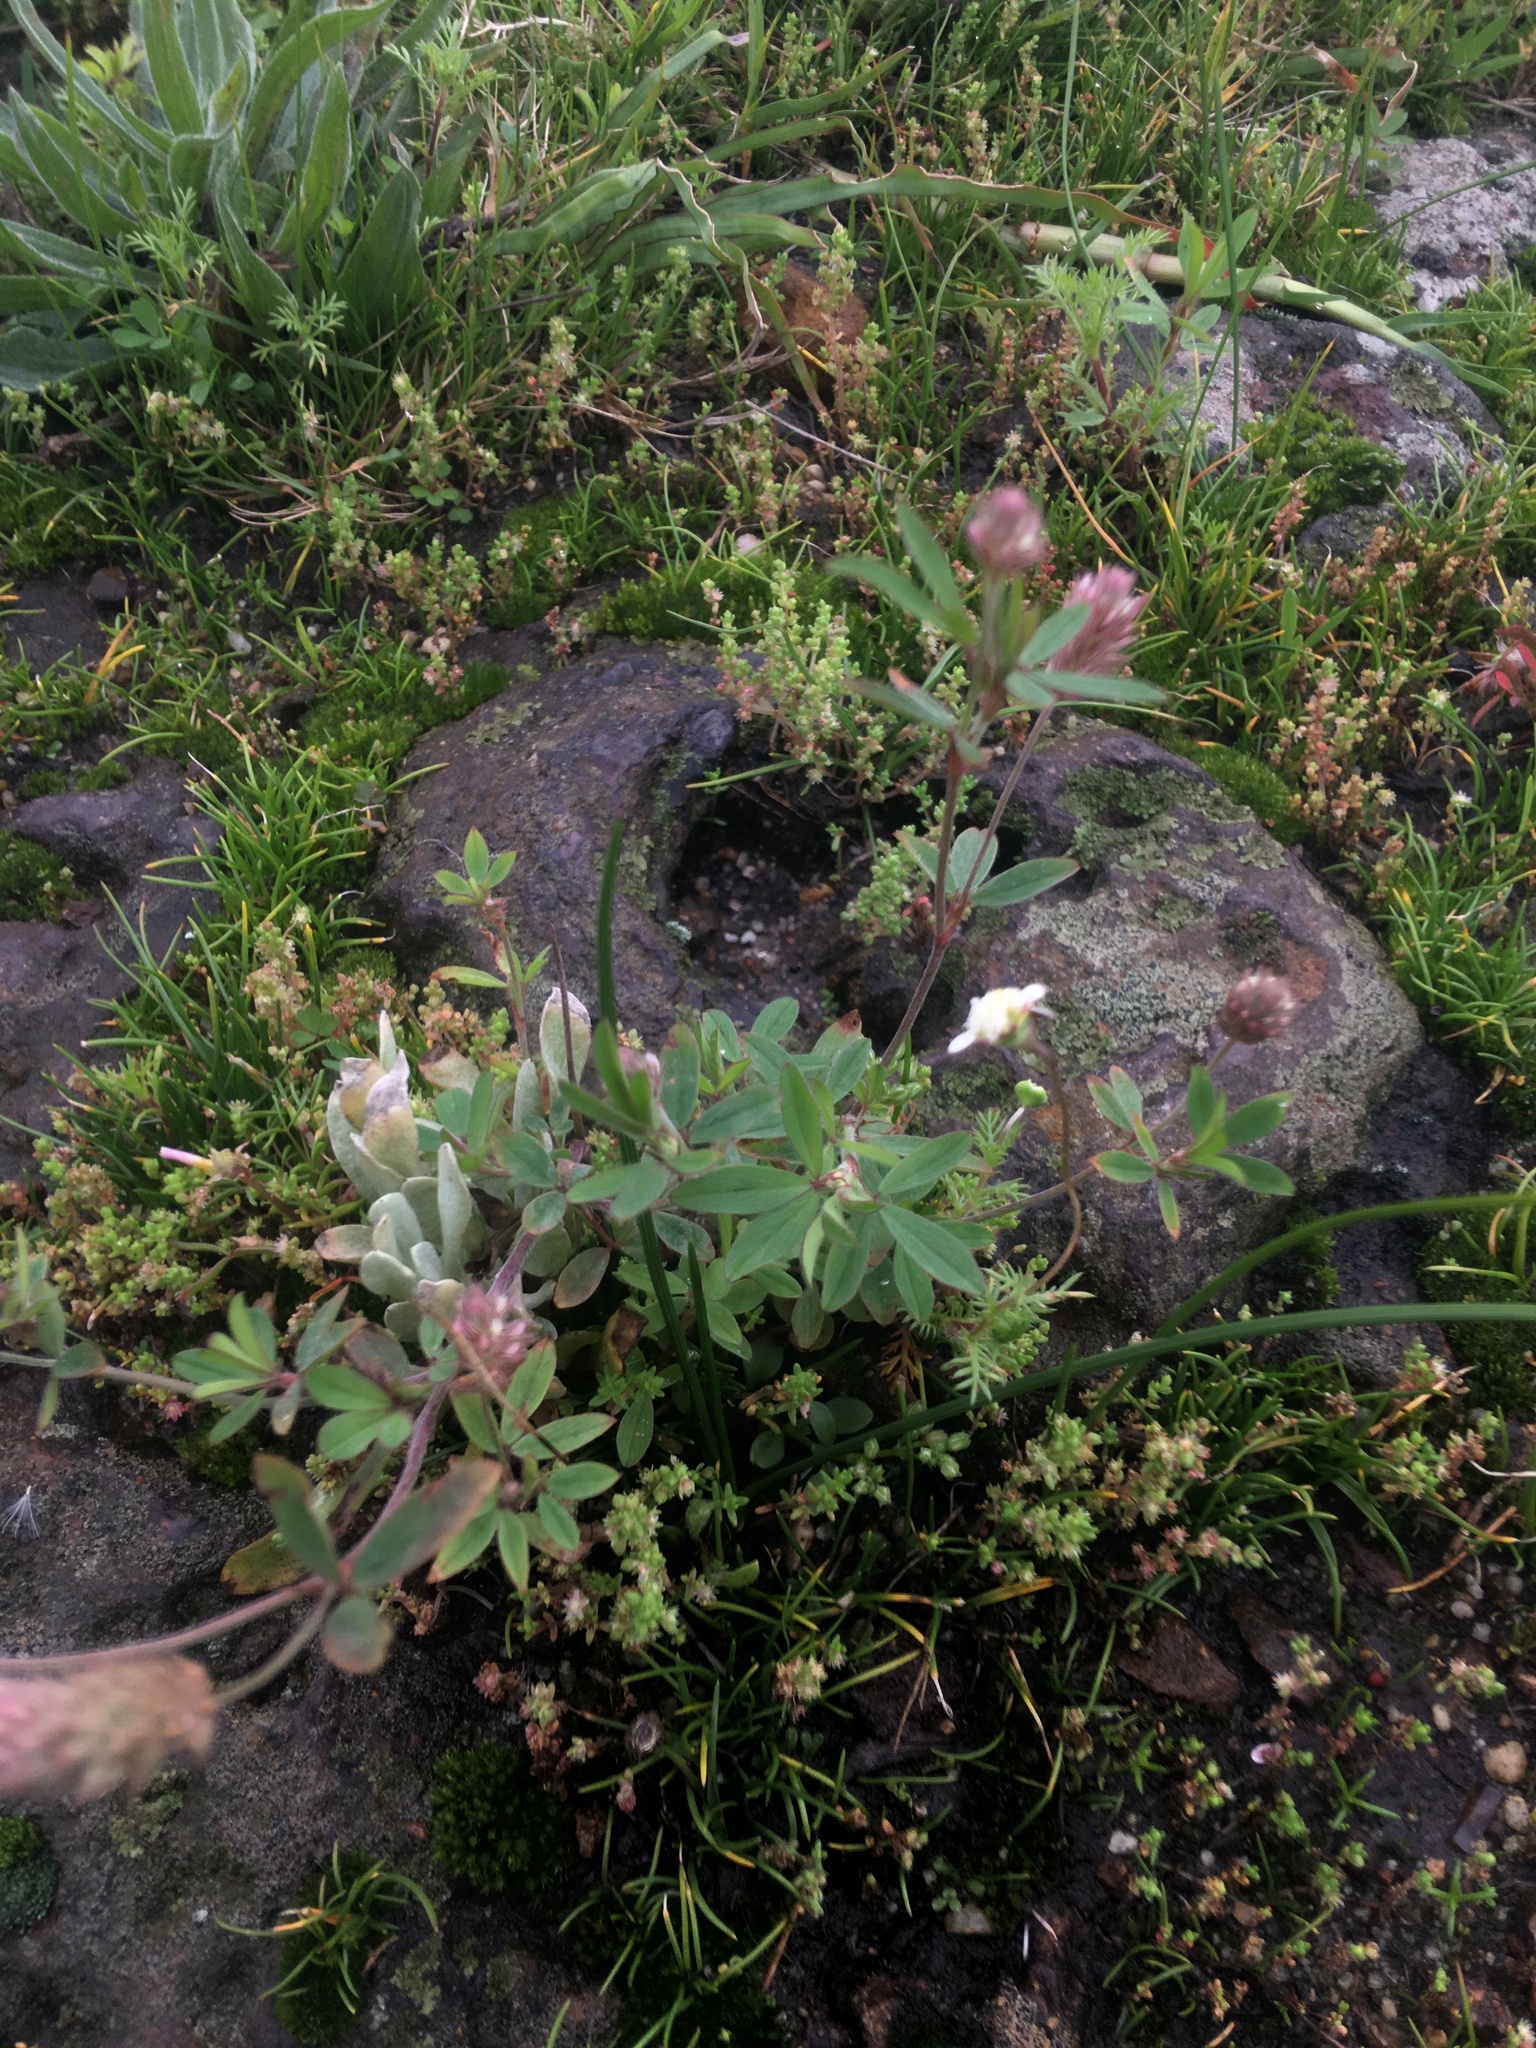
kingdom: Plantae
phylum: Tracheophyta
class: Magnoliopsida
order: Fabales
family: Fabaceae
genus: Trifolium
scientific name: Trifolium arvense
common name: Hare's-foot clover
